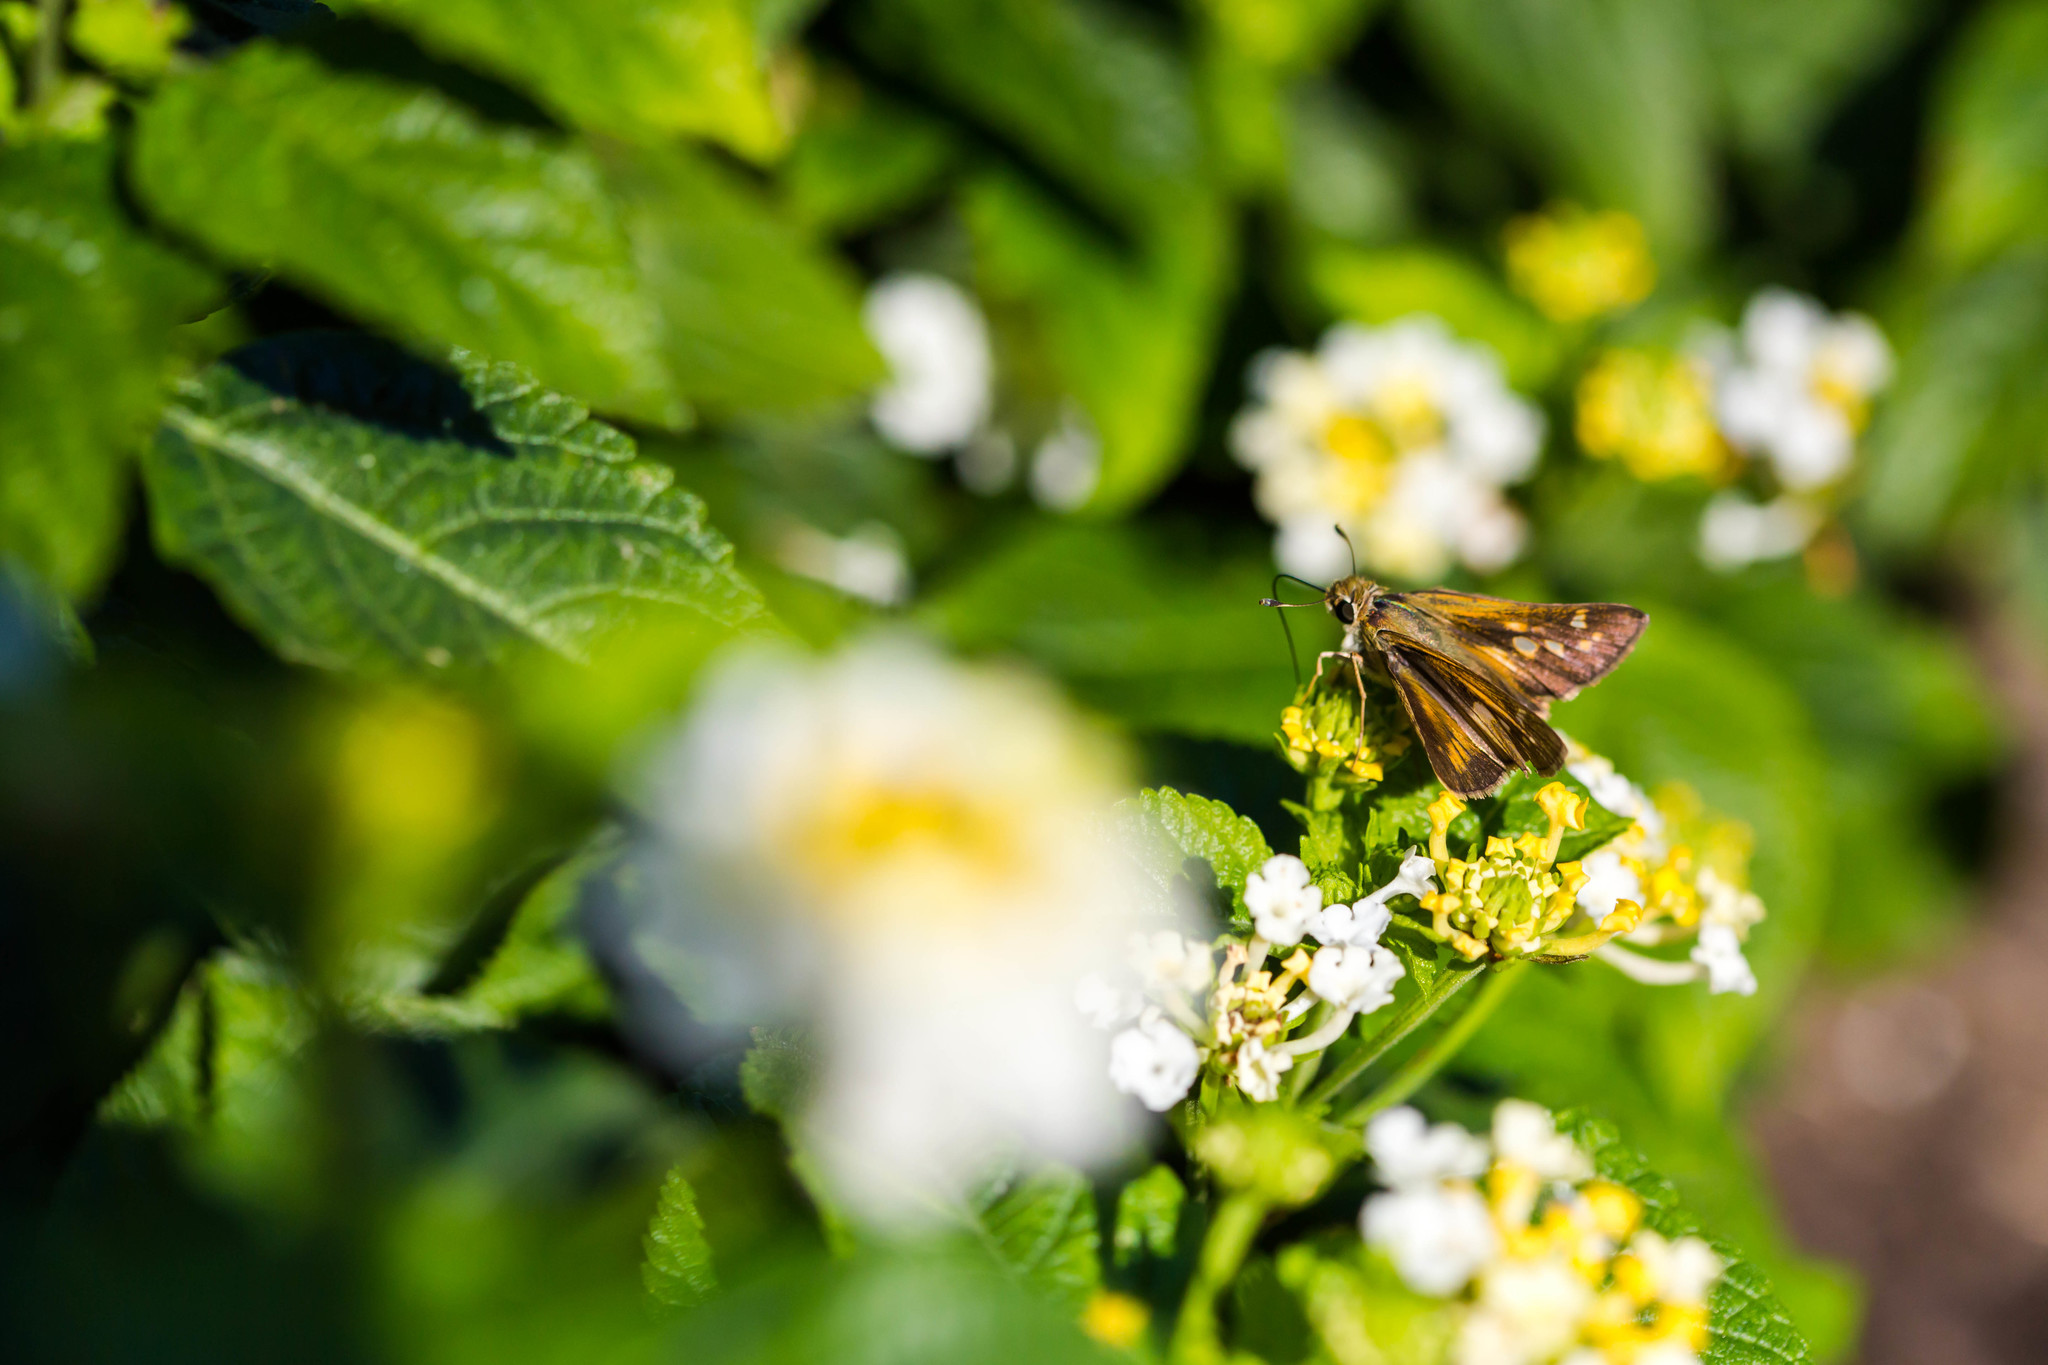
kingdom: Animalia
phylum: Arthropoda
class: Insecta
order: Lepidoptera
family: Hesperiidae
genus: Atalopedes
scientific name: Atalopedes
